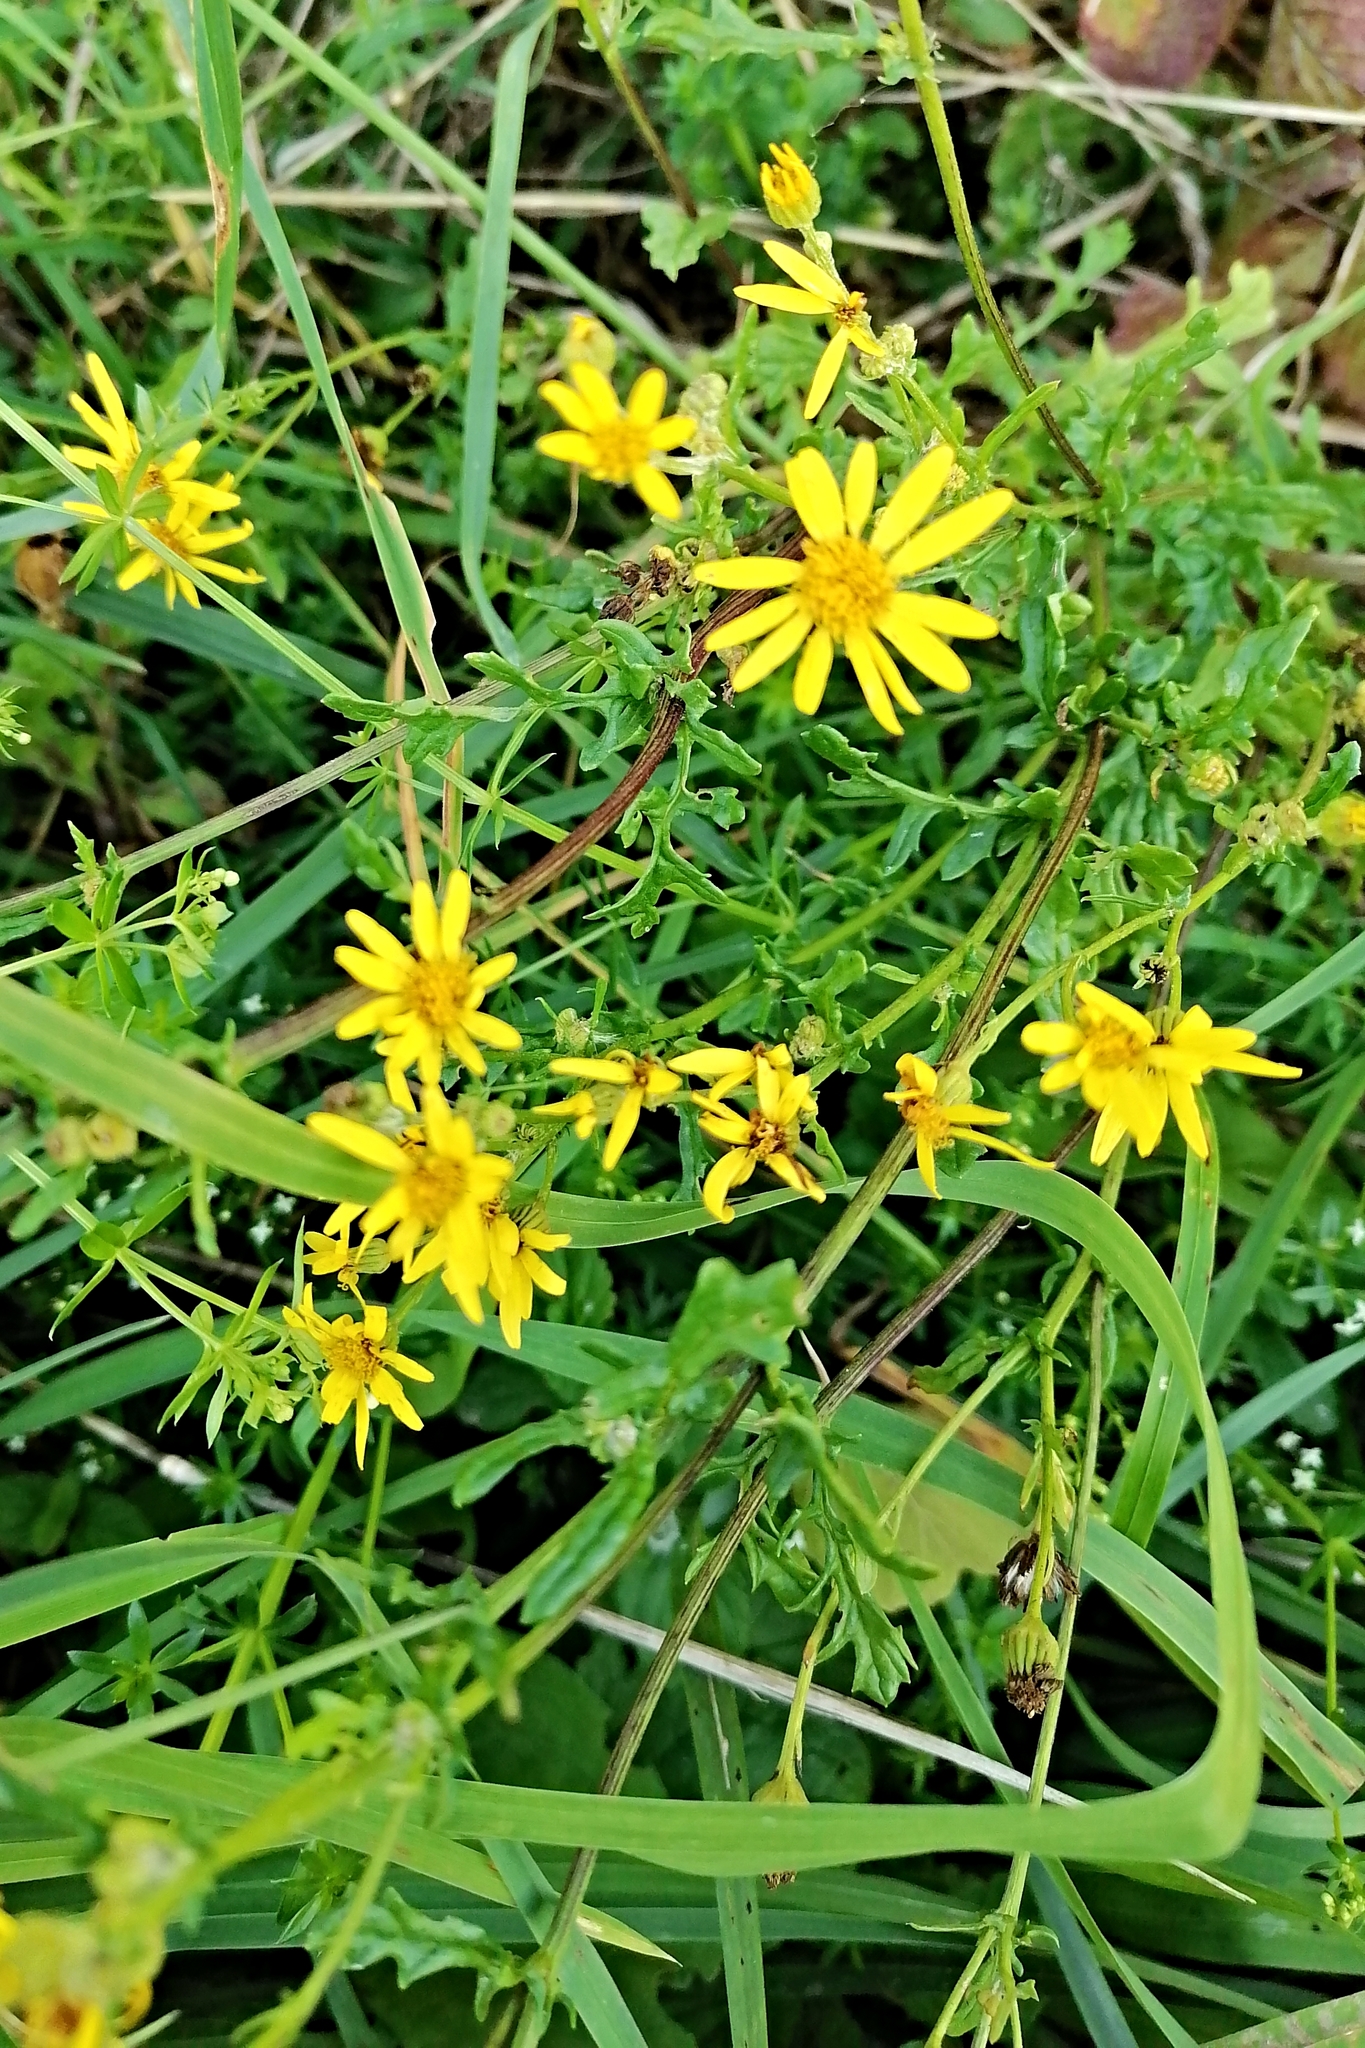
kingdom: Plantae
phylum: Tracheophyta
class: Magnoliopsida
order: Asterales
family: Asteraceae
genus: Jacobaea
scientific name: Jacobaea vulgaris
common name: Stinking willie
